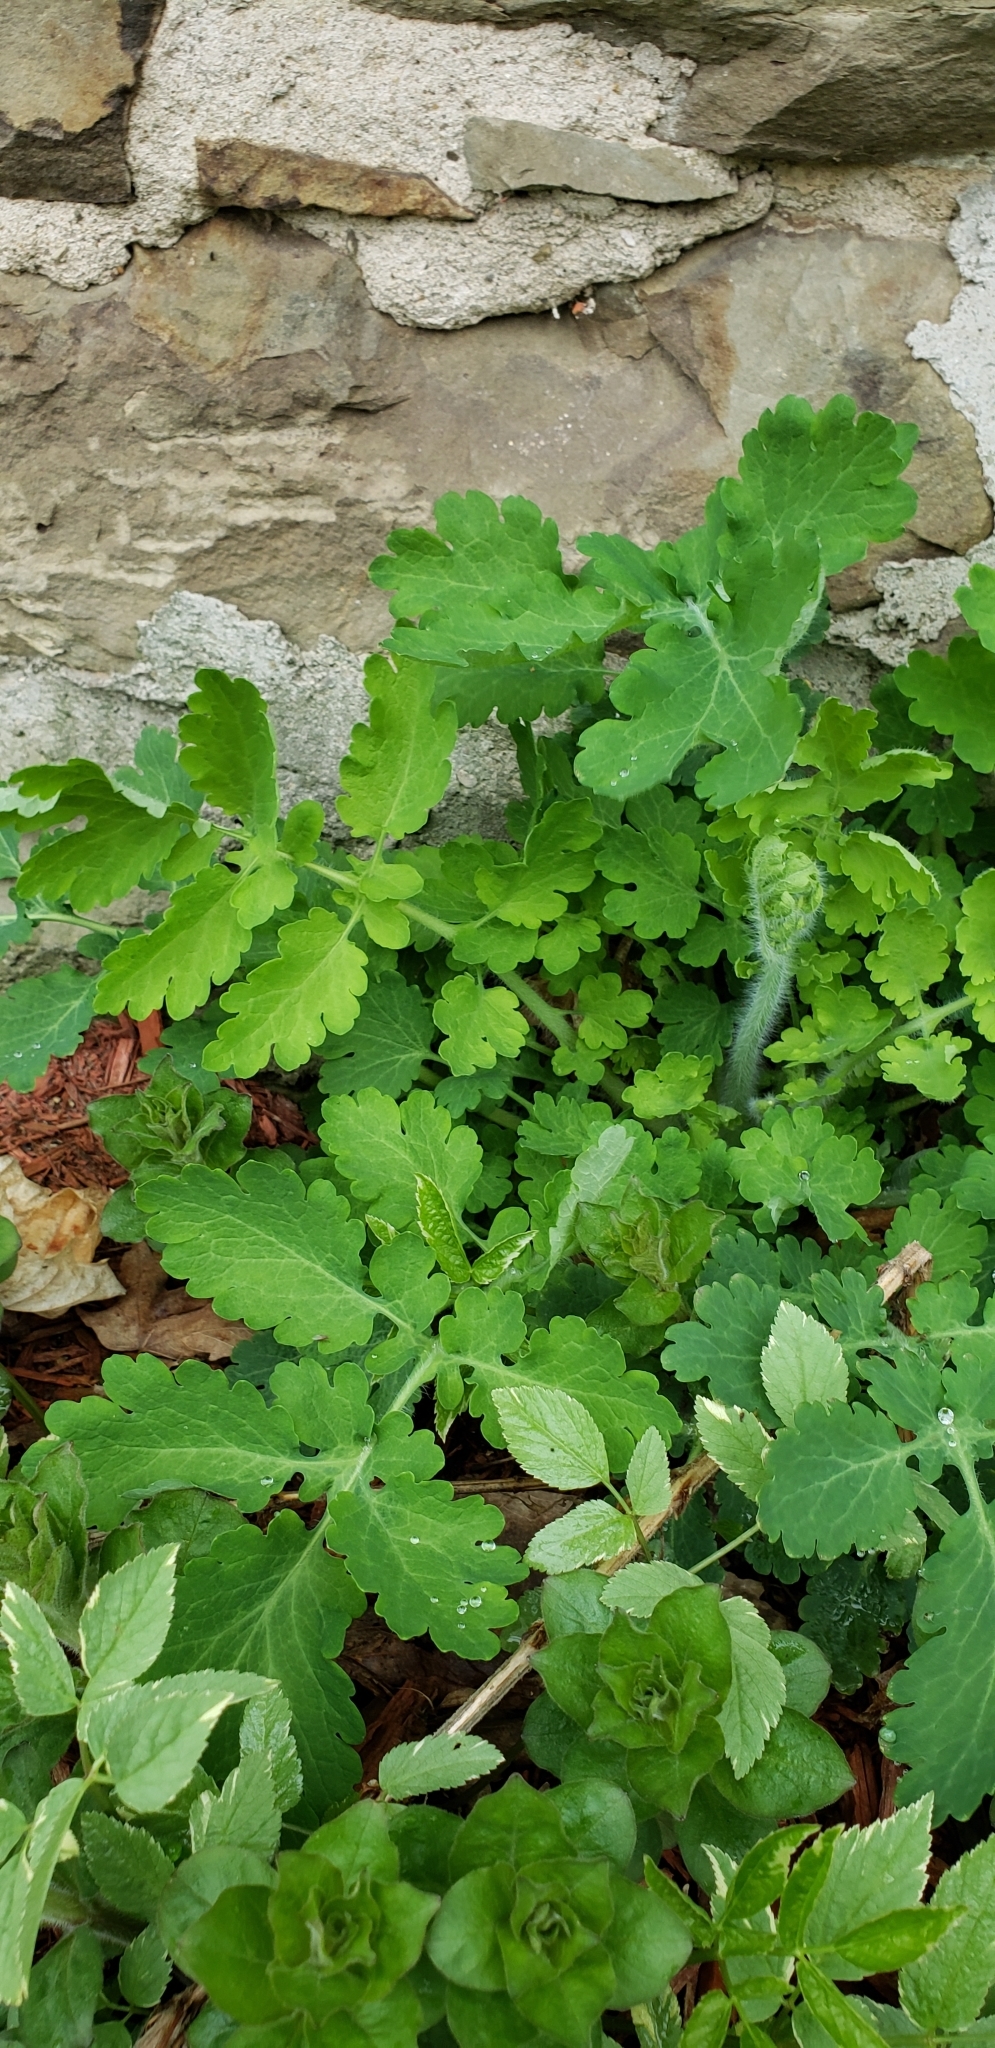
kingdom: Plantae
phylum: Tracheophyta
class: Magnoliopsida
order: Ranunculales
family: Papaveraceae
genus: Chelidonium
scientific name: Chelidonium majus
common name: Greater celandine
